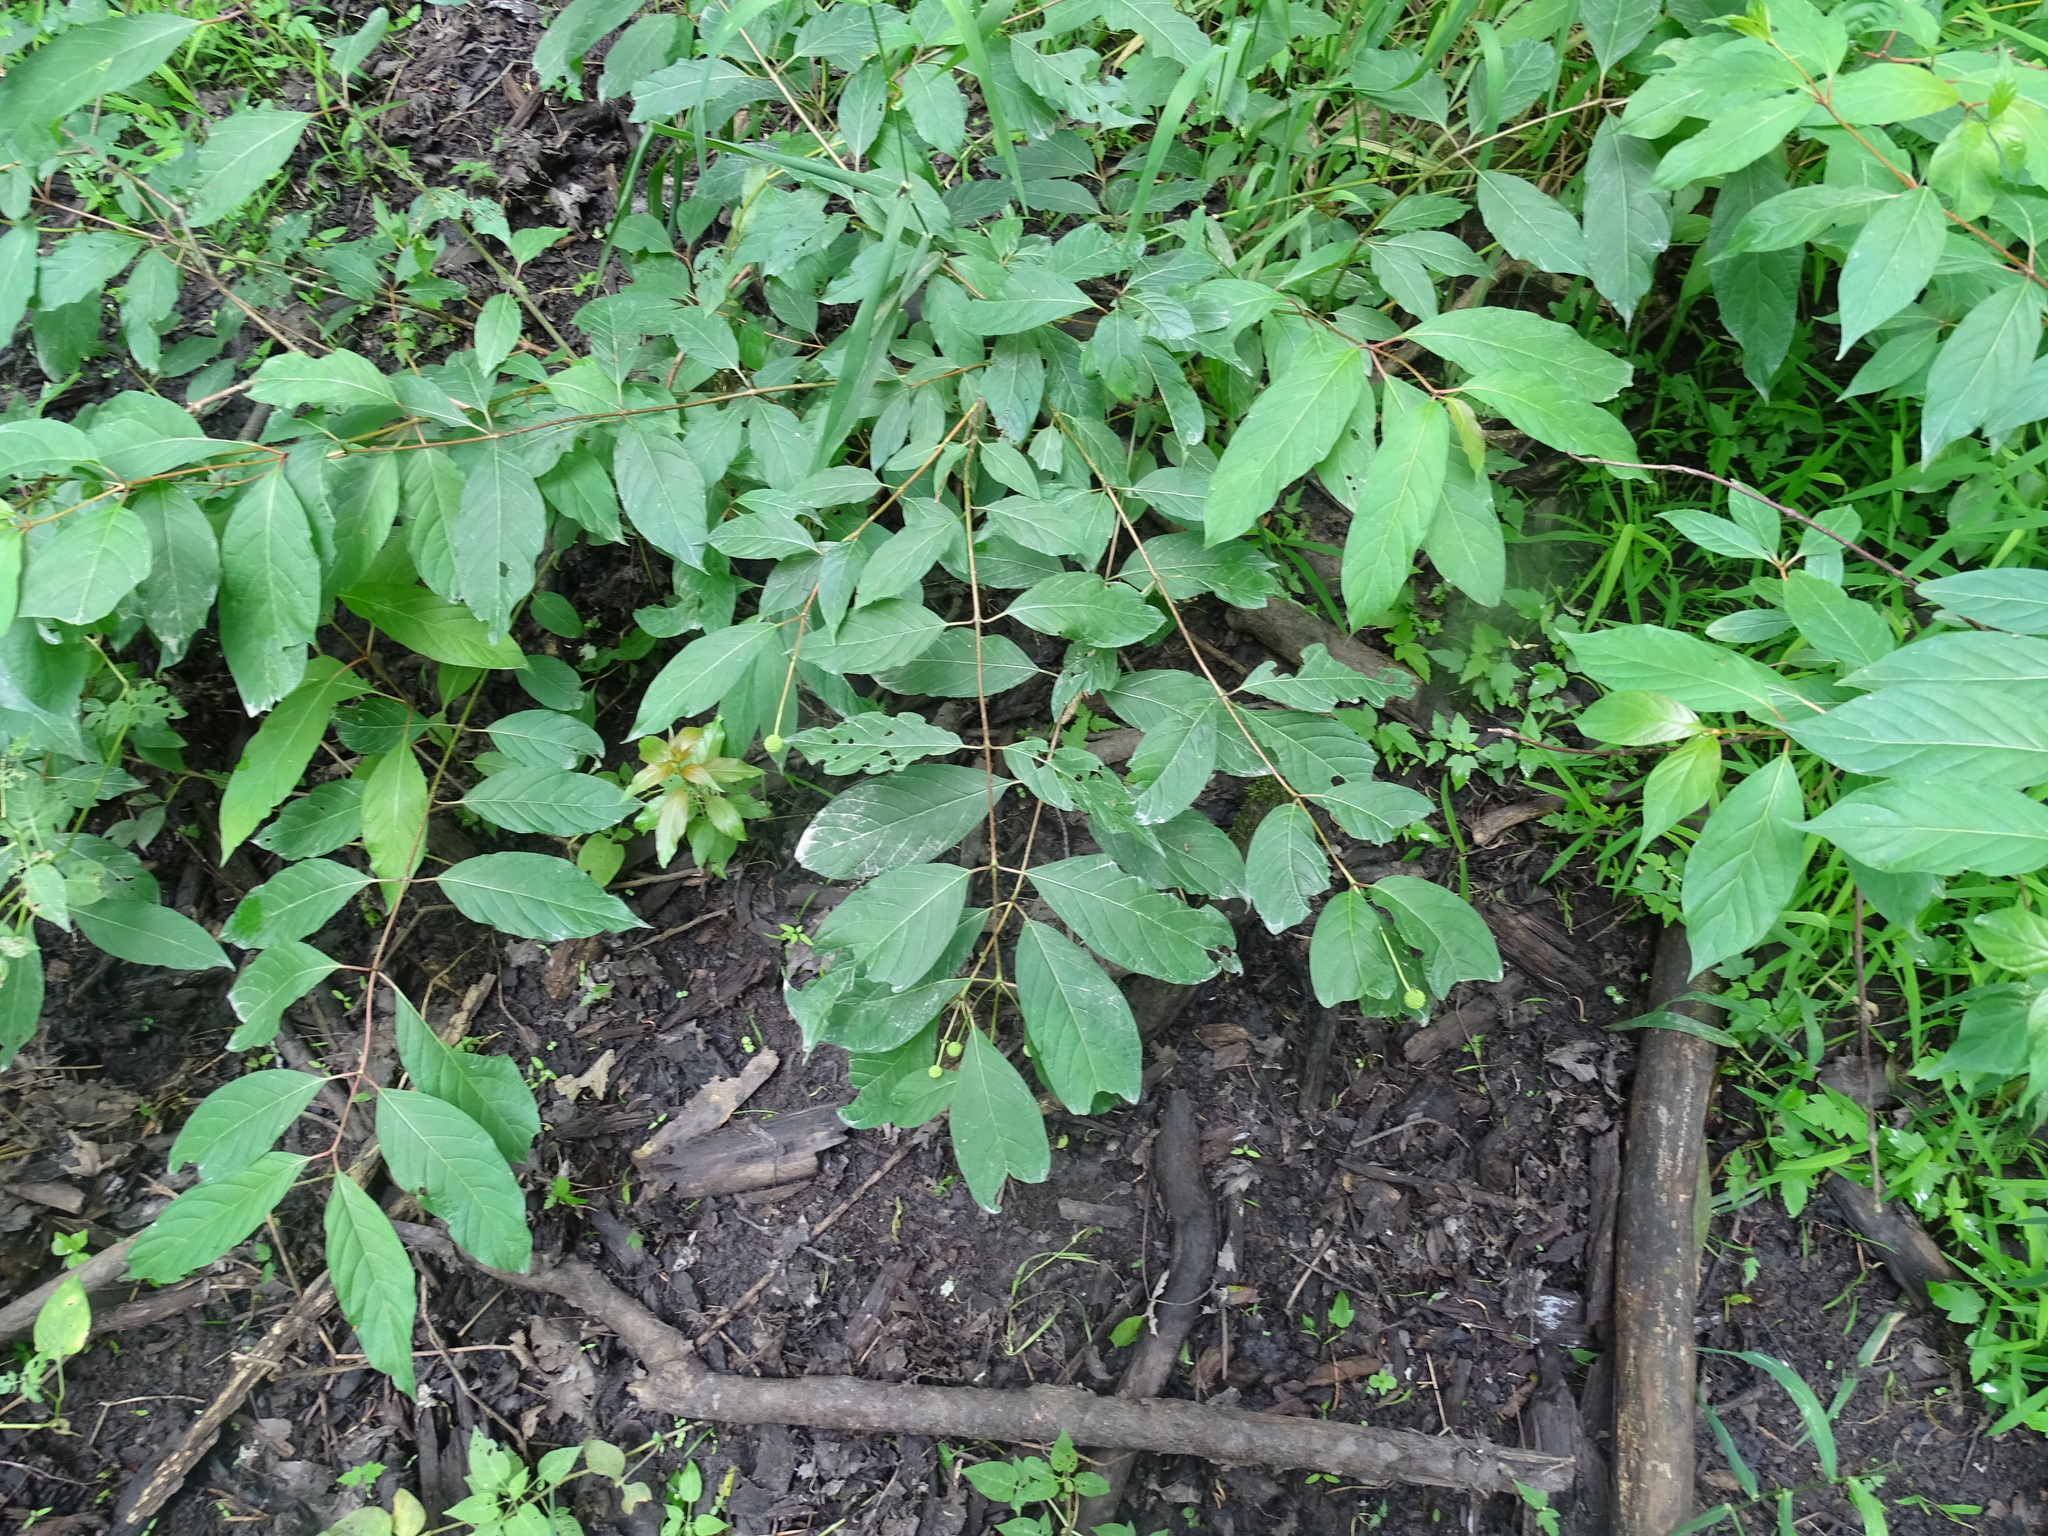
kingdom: Plantae
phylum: Tracheophyta
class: Magnoliopsida
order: Gentianales
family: Rubiaceae
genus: Cephalanthus
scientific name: Cephalanthus occidentalis
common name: Button-willow
